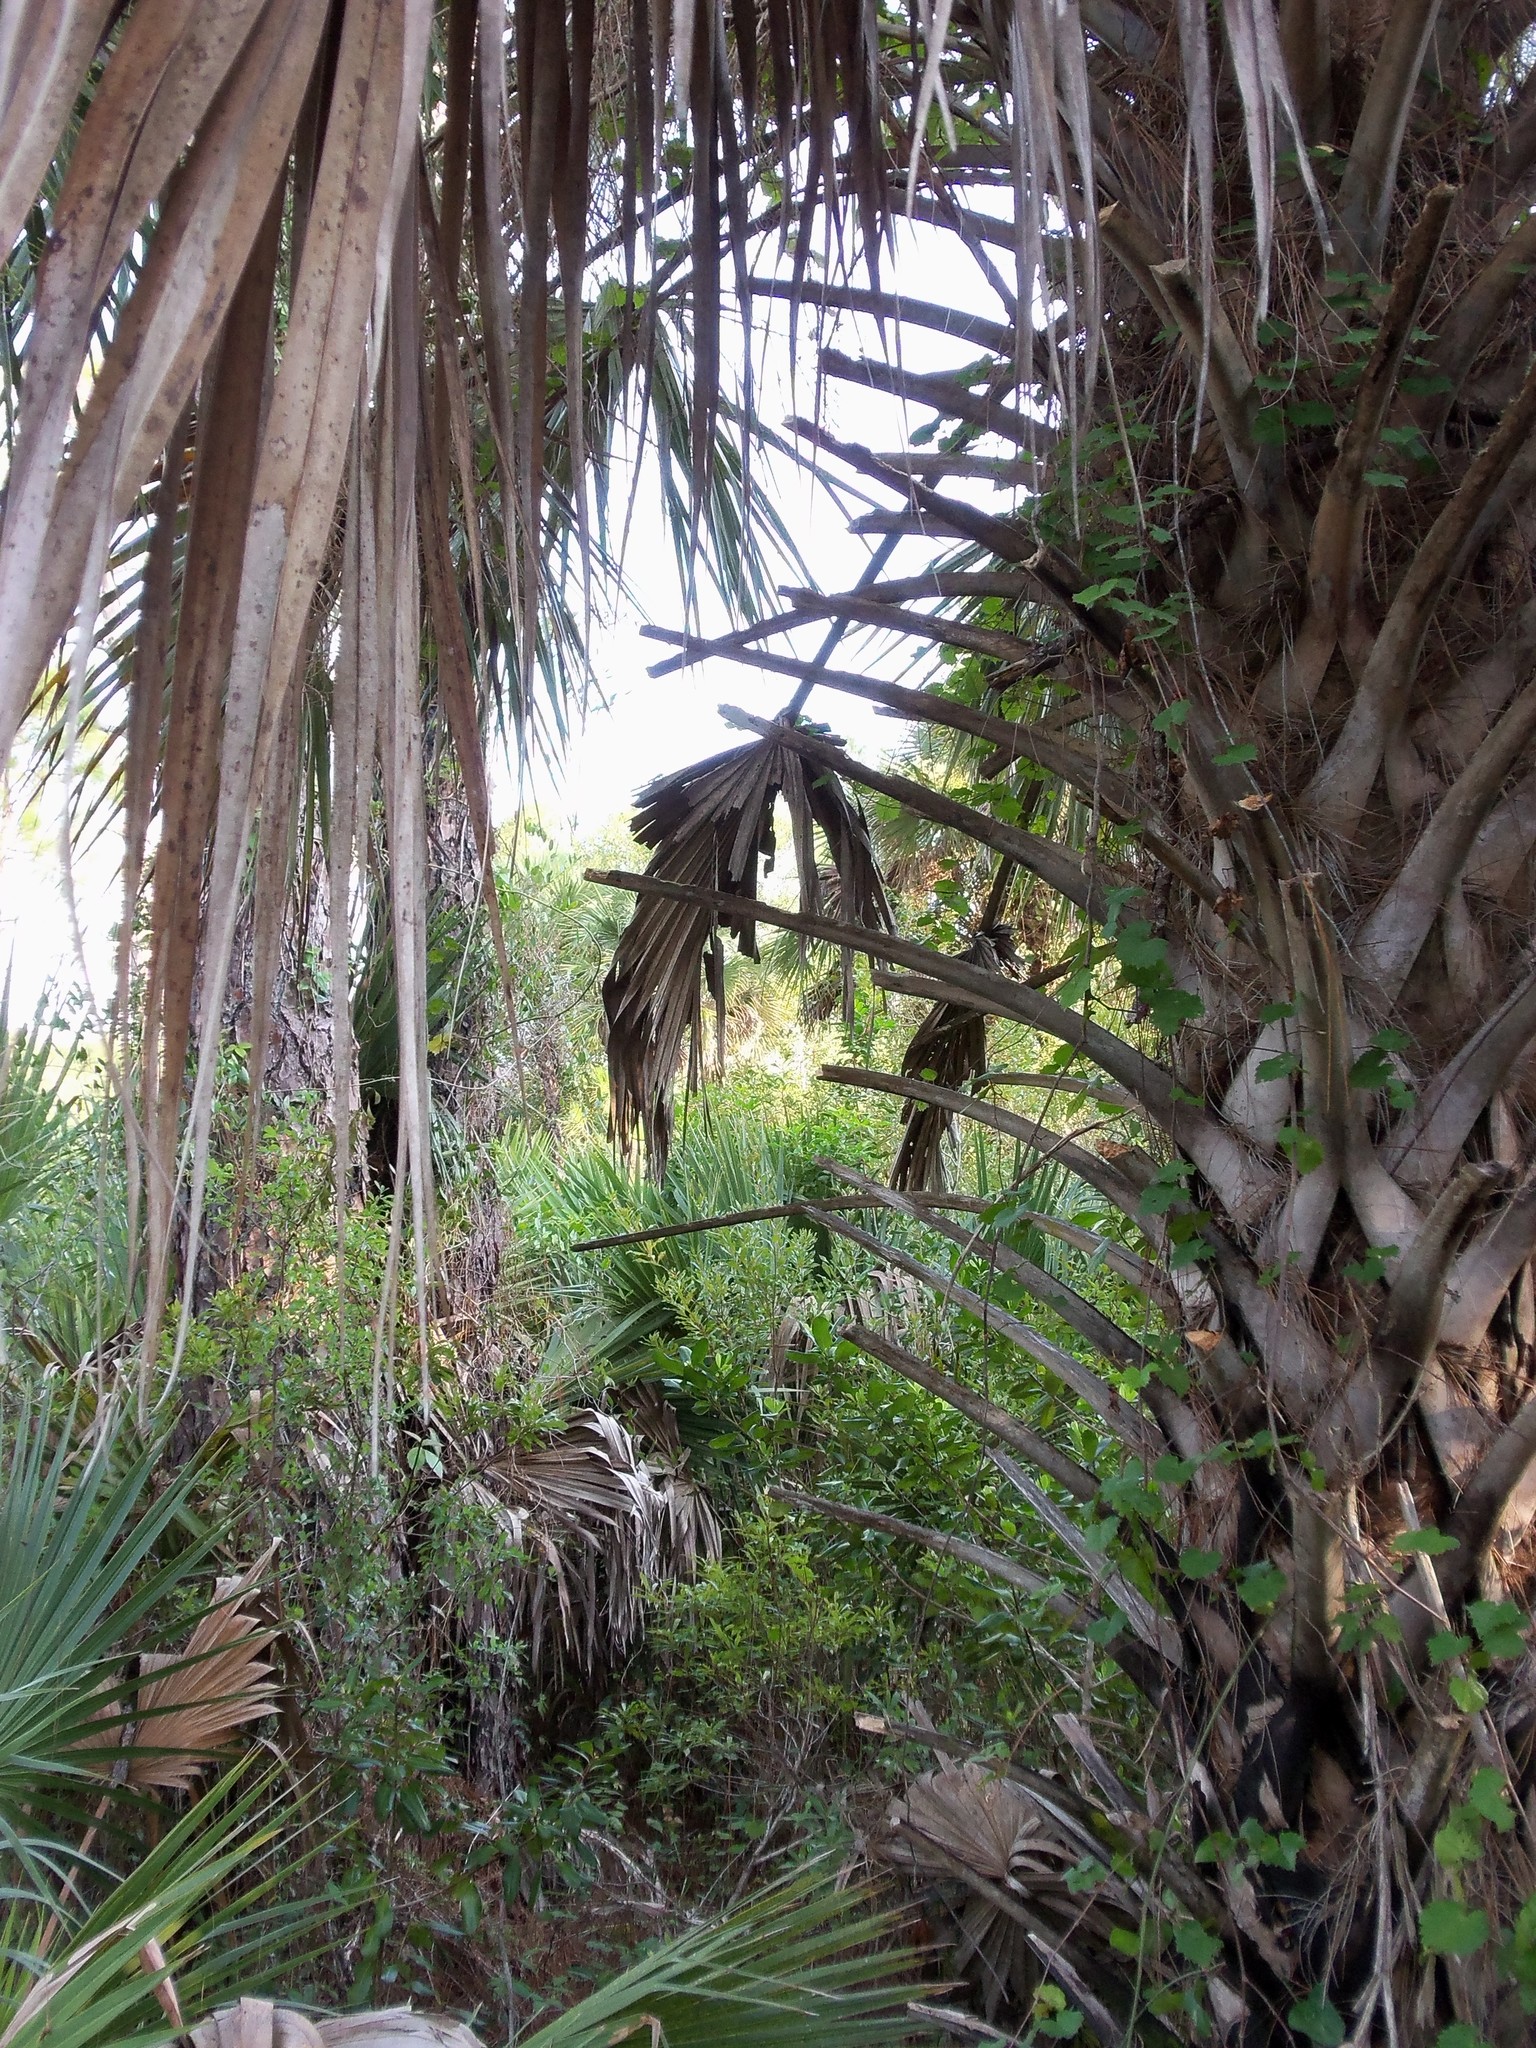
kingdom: Plantae
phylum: Tracheophyta
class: Liliopsida
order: Arecales
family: Arecaceae
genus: Sabal
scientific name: Sabal palmetto
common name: Blue palmetto
